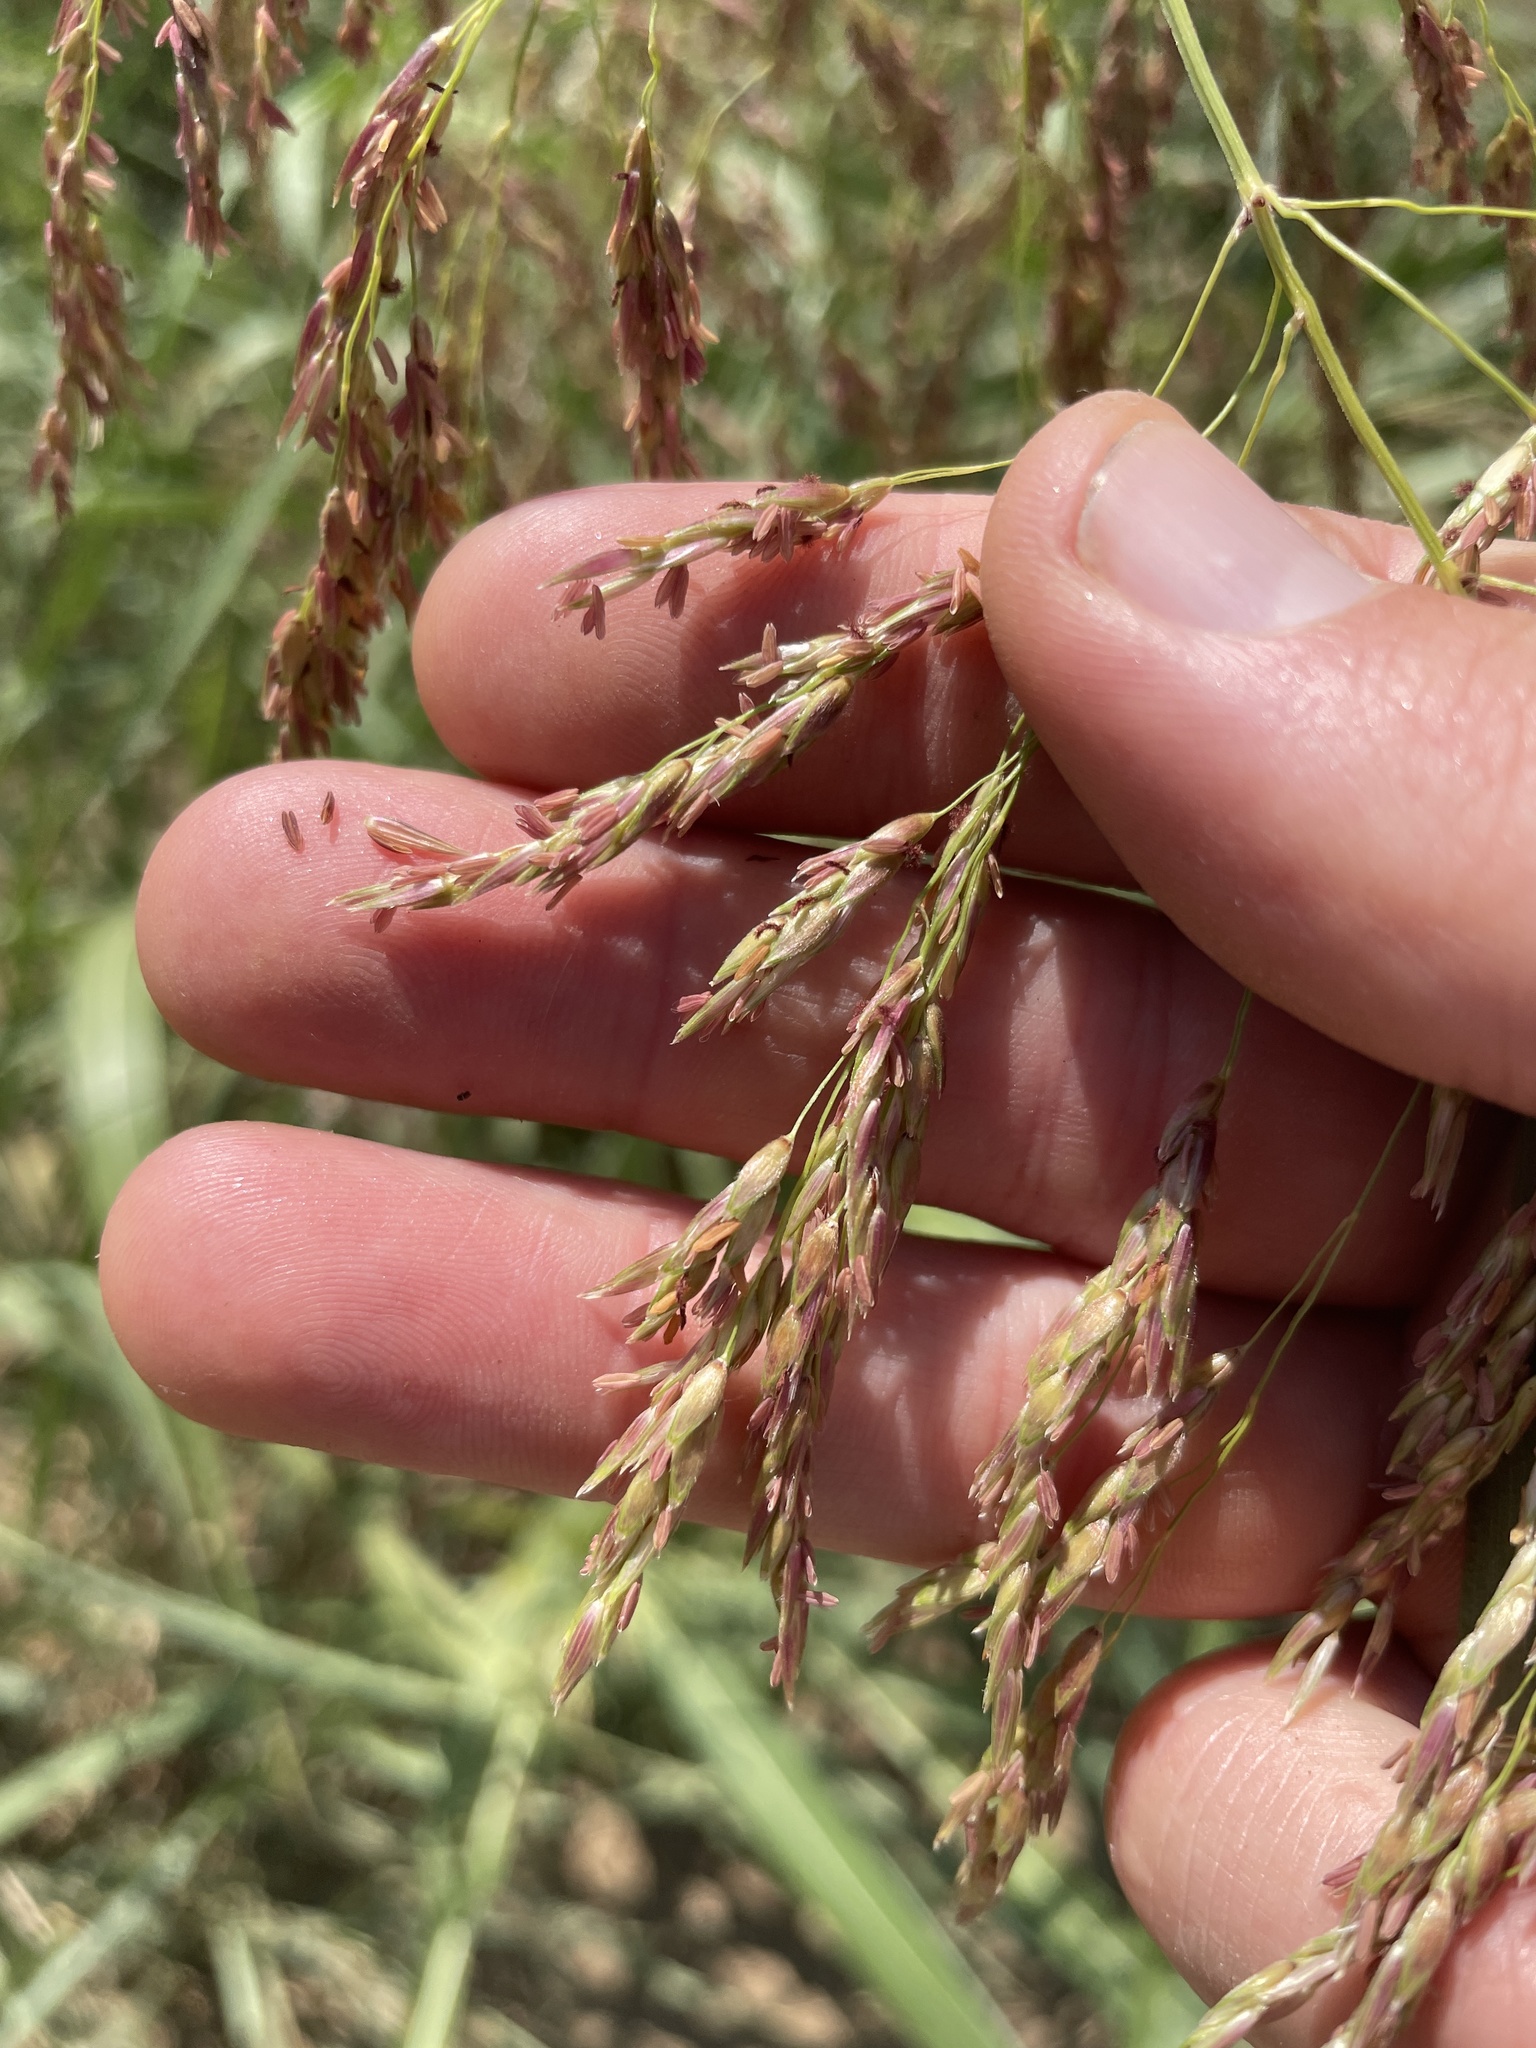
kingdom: Plantae
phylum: Tracheophyta
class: Liliopsida
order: Poales
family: Poaceae
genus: Sorghum
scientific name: Sorghum halepense
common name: Johnson-grass
